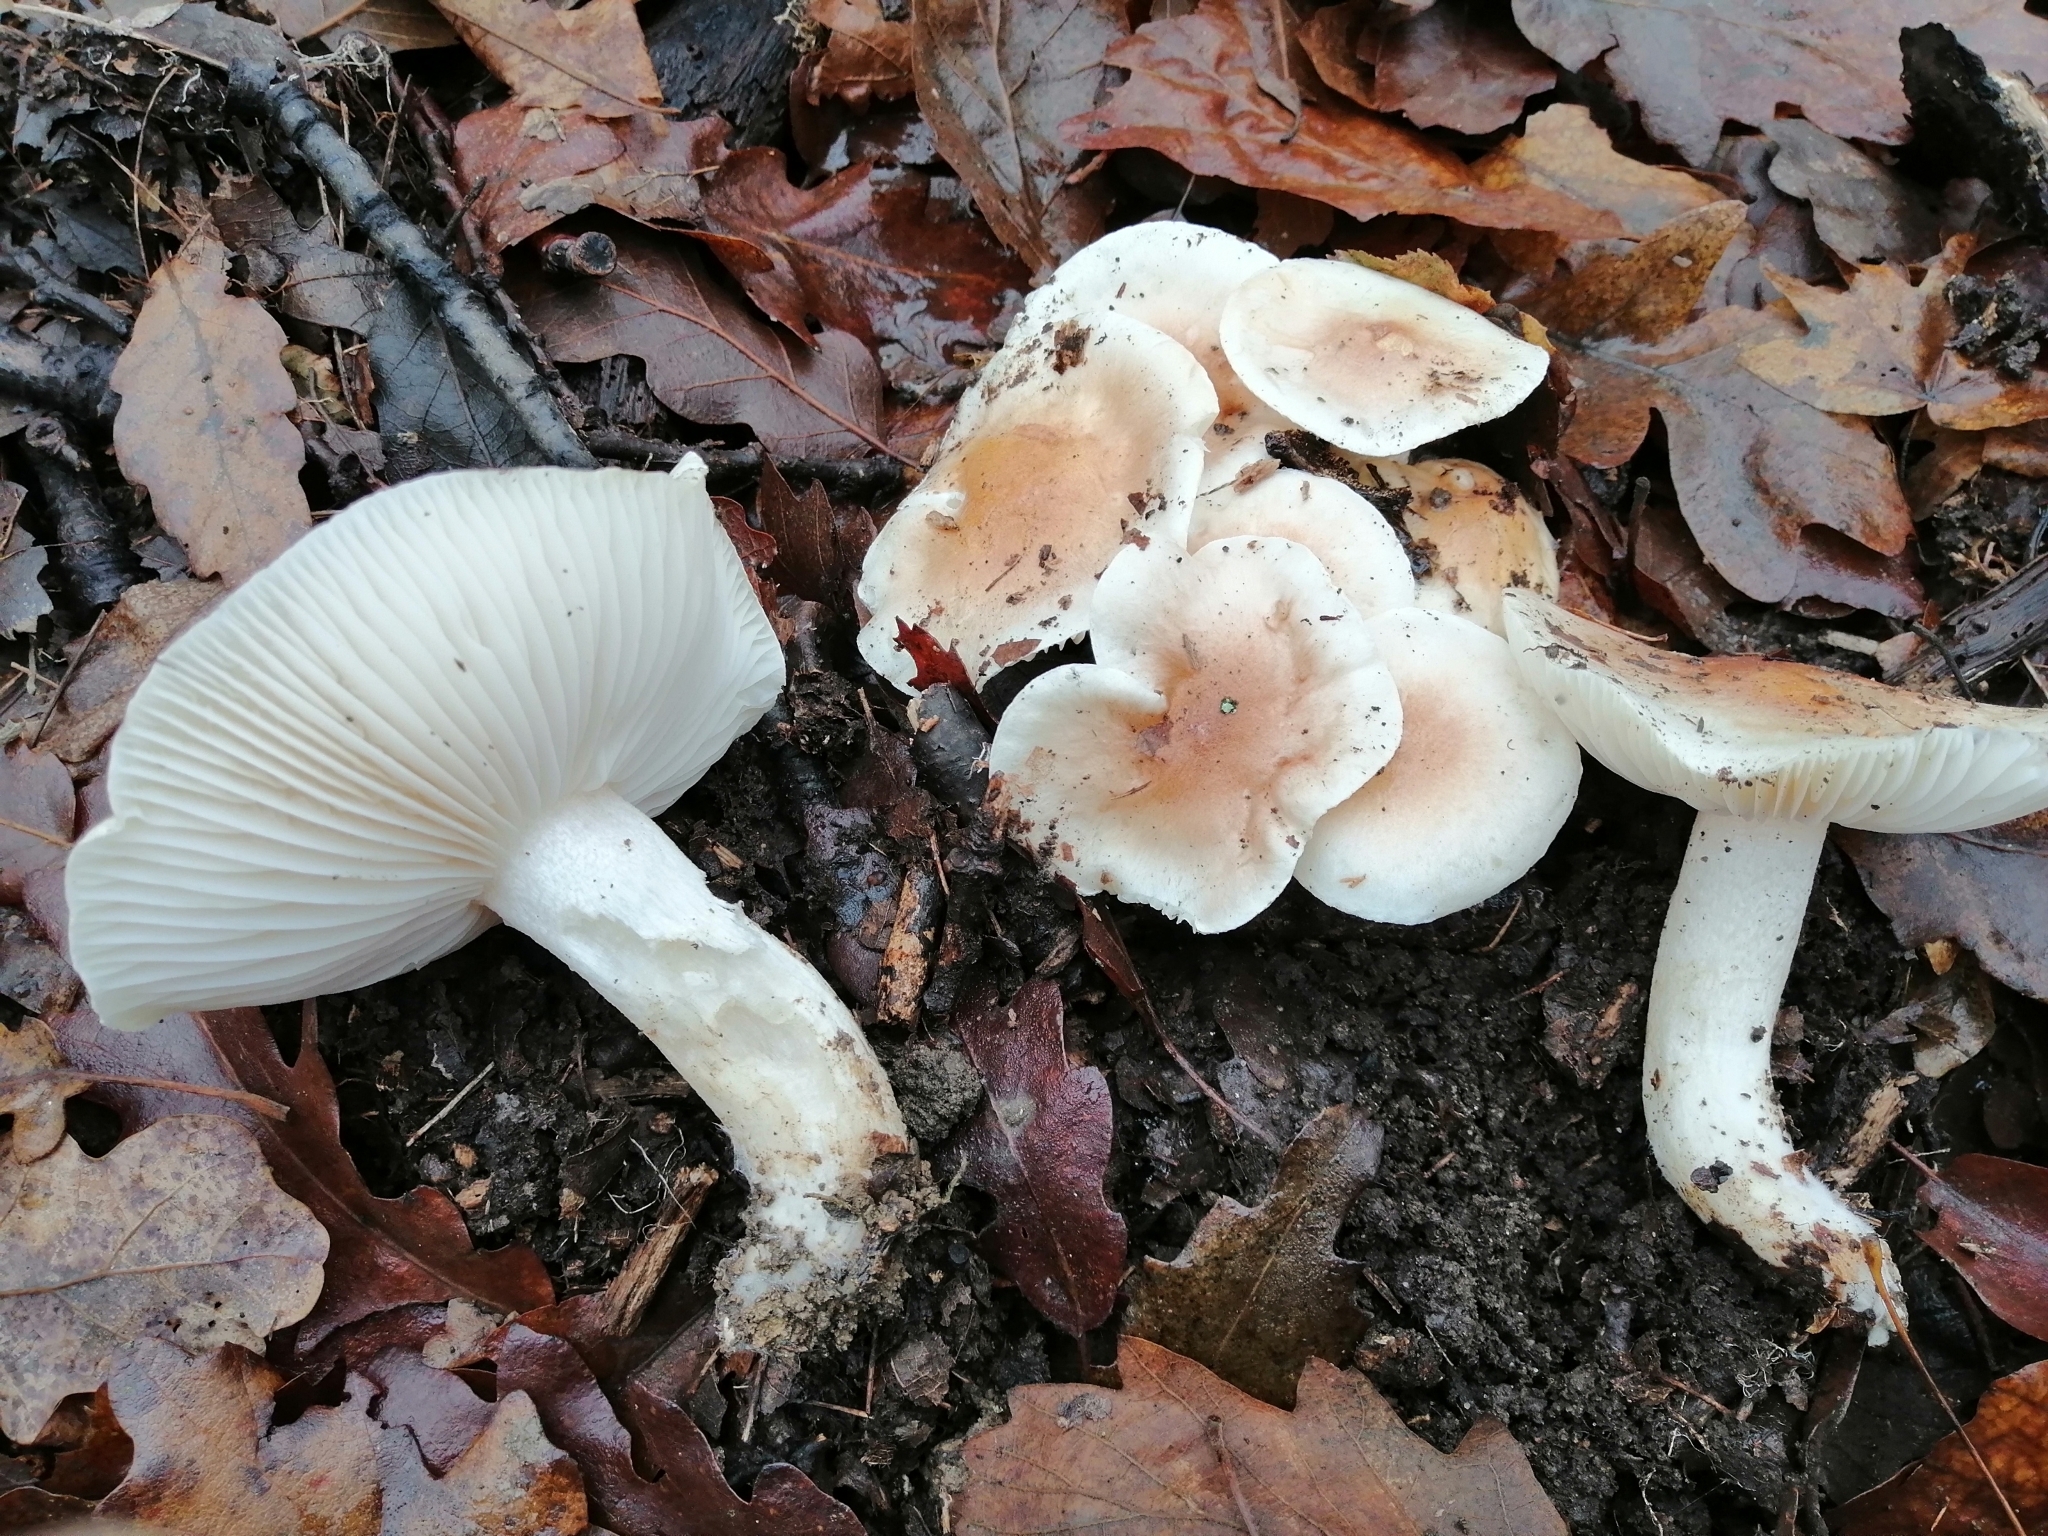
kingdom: Fungi
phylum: Basidiomycota
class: Agaricomycetes
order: Agaricales
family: Hygrophoraceae
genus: Hygrophorus
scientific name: Hygrophorus arbustivus
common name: Forest woodwax
